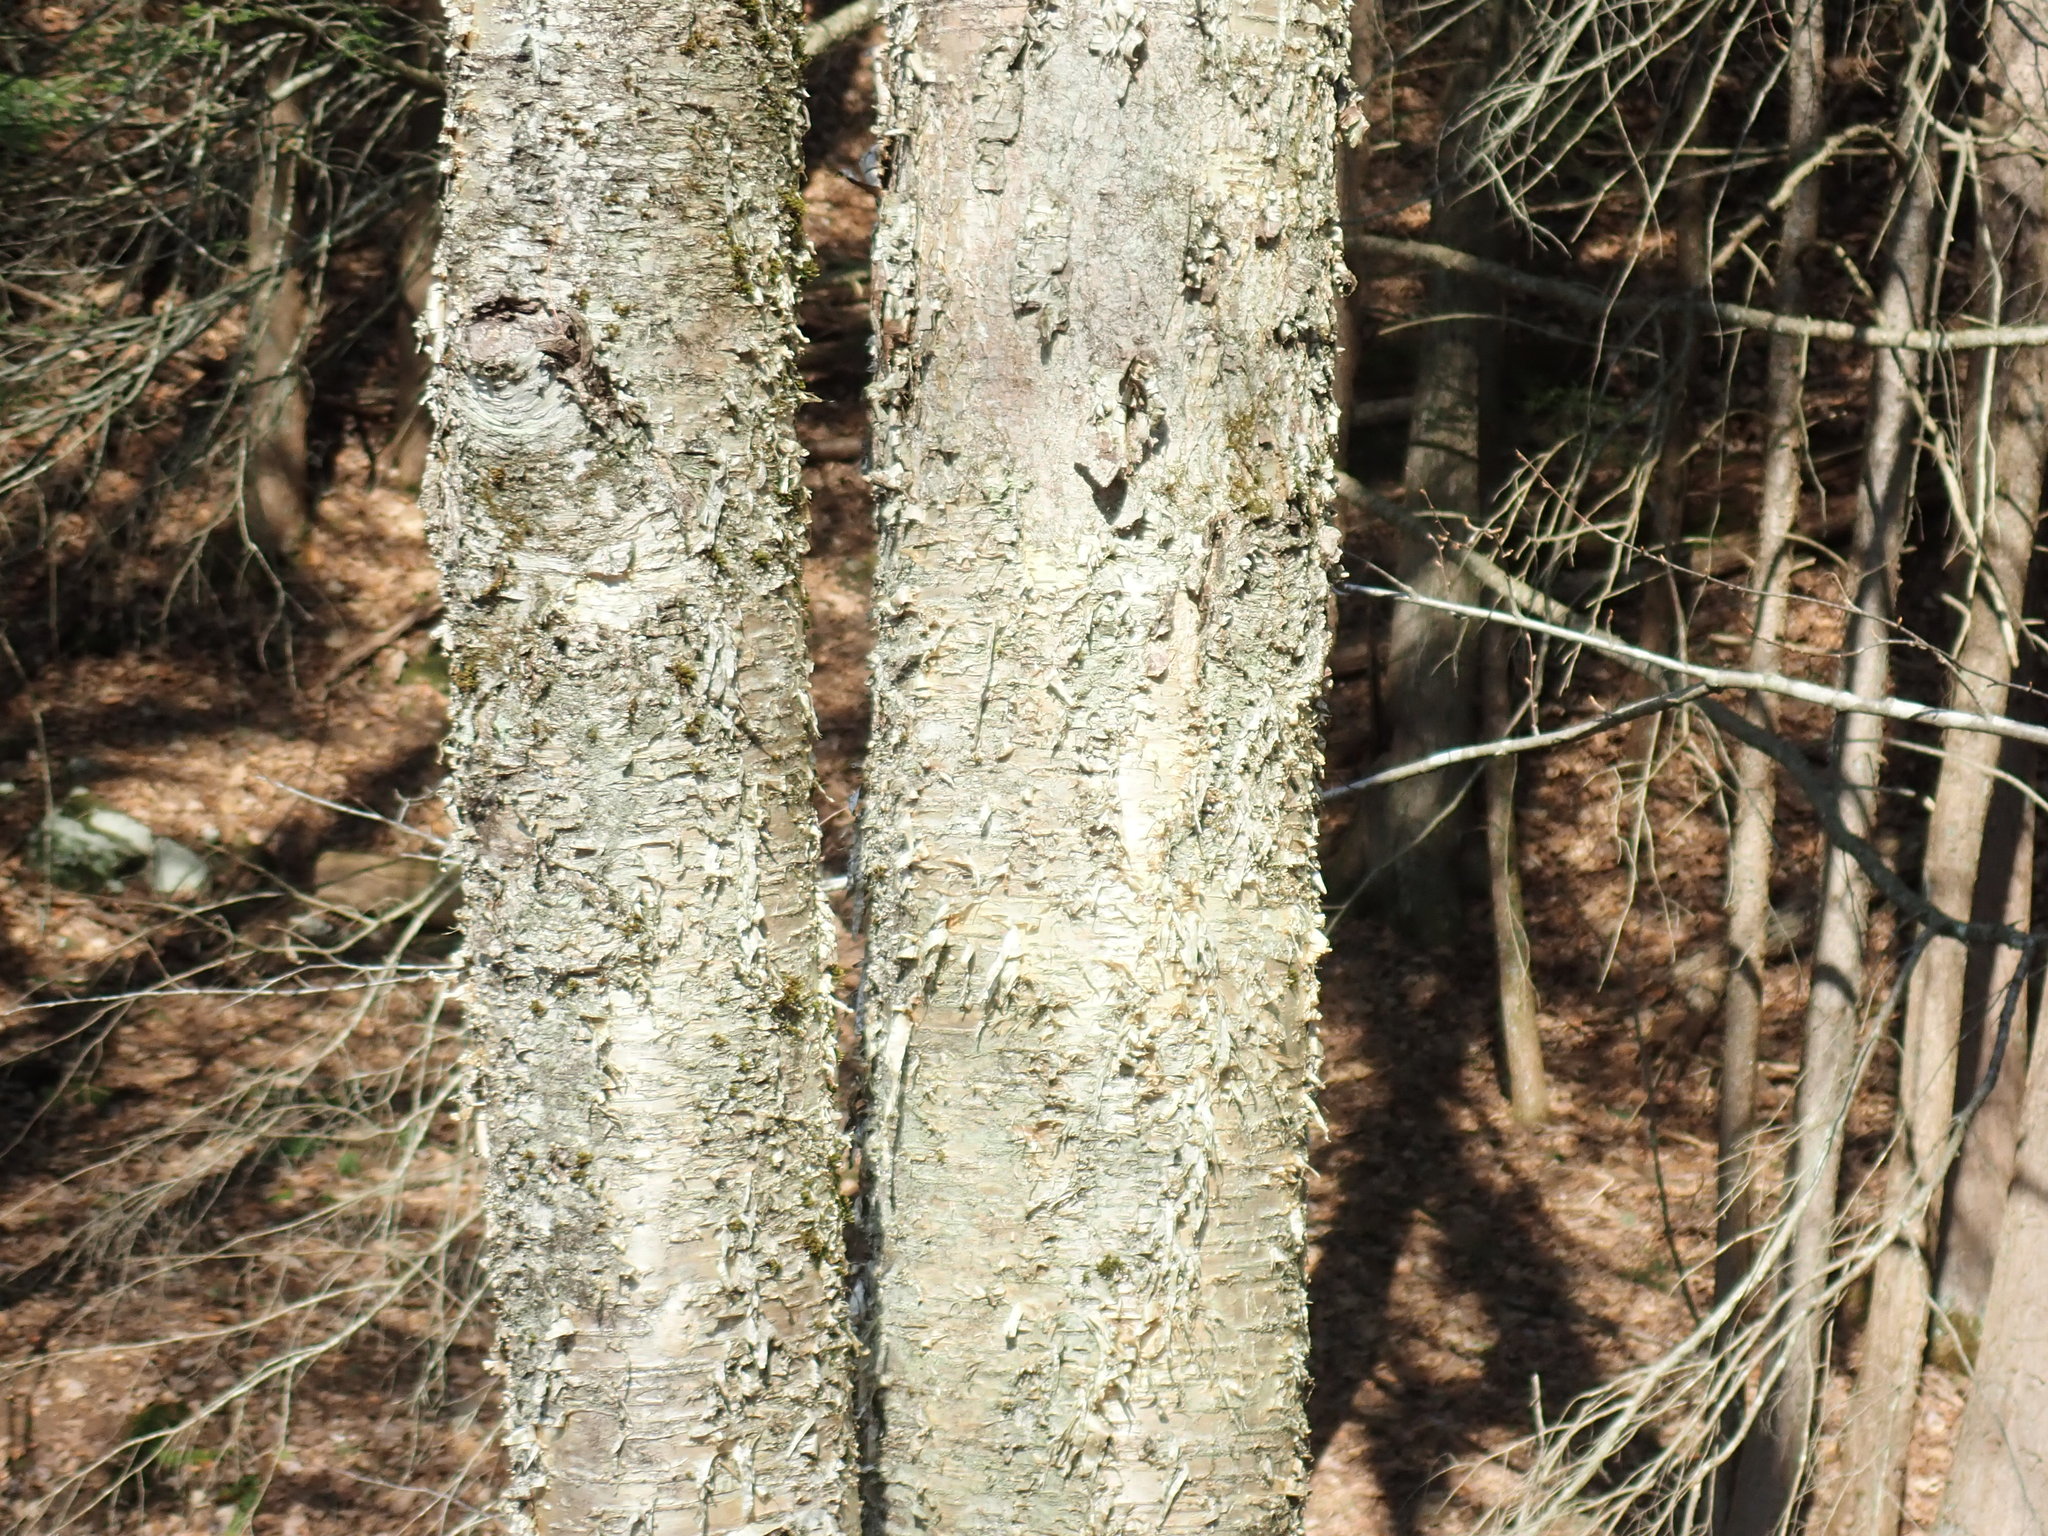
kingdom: Plantae
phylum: Tracheophyta
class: Magnoliopsida
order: Fagales
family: Betulaceae
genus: Betula
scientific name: Betula alleghaniensis
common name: Yellow birch
